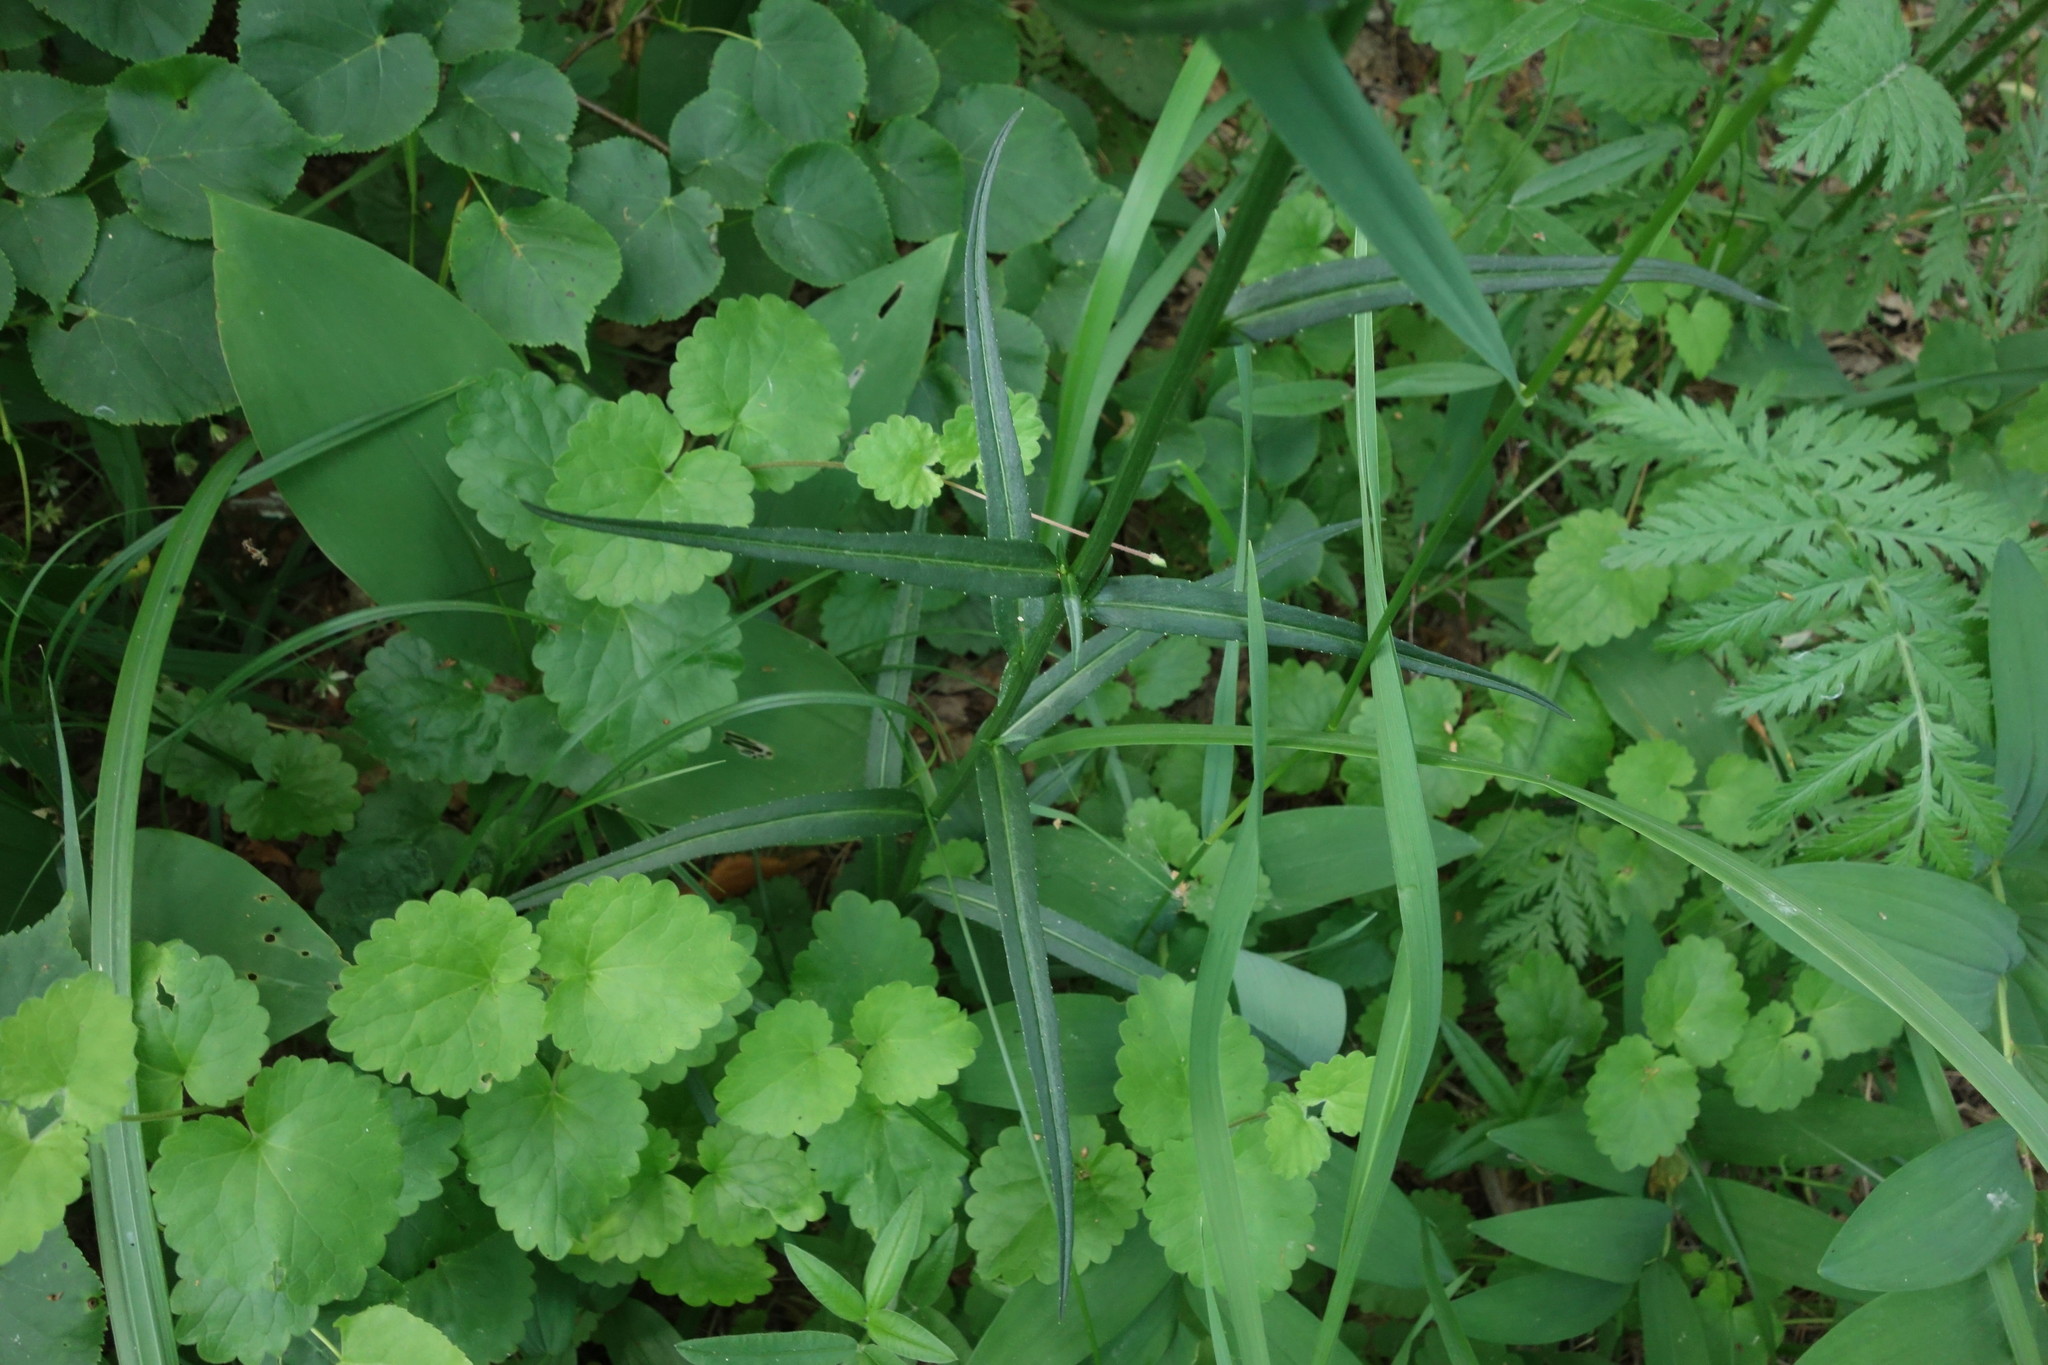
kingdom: Plantae
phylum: Tracheophyta
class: Magnoliopsida
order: Asterales
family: Campanulaceae
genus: Campanula
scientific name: Campanula persicifolia
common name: Peach-leaved bellflower
